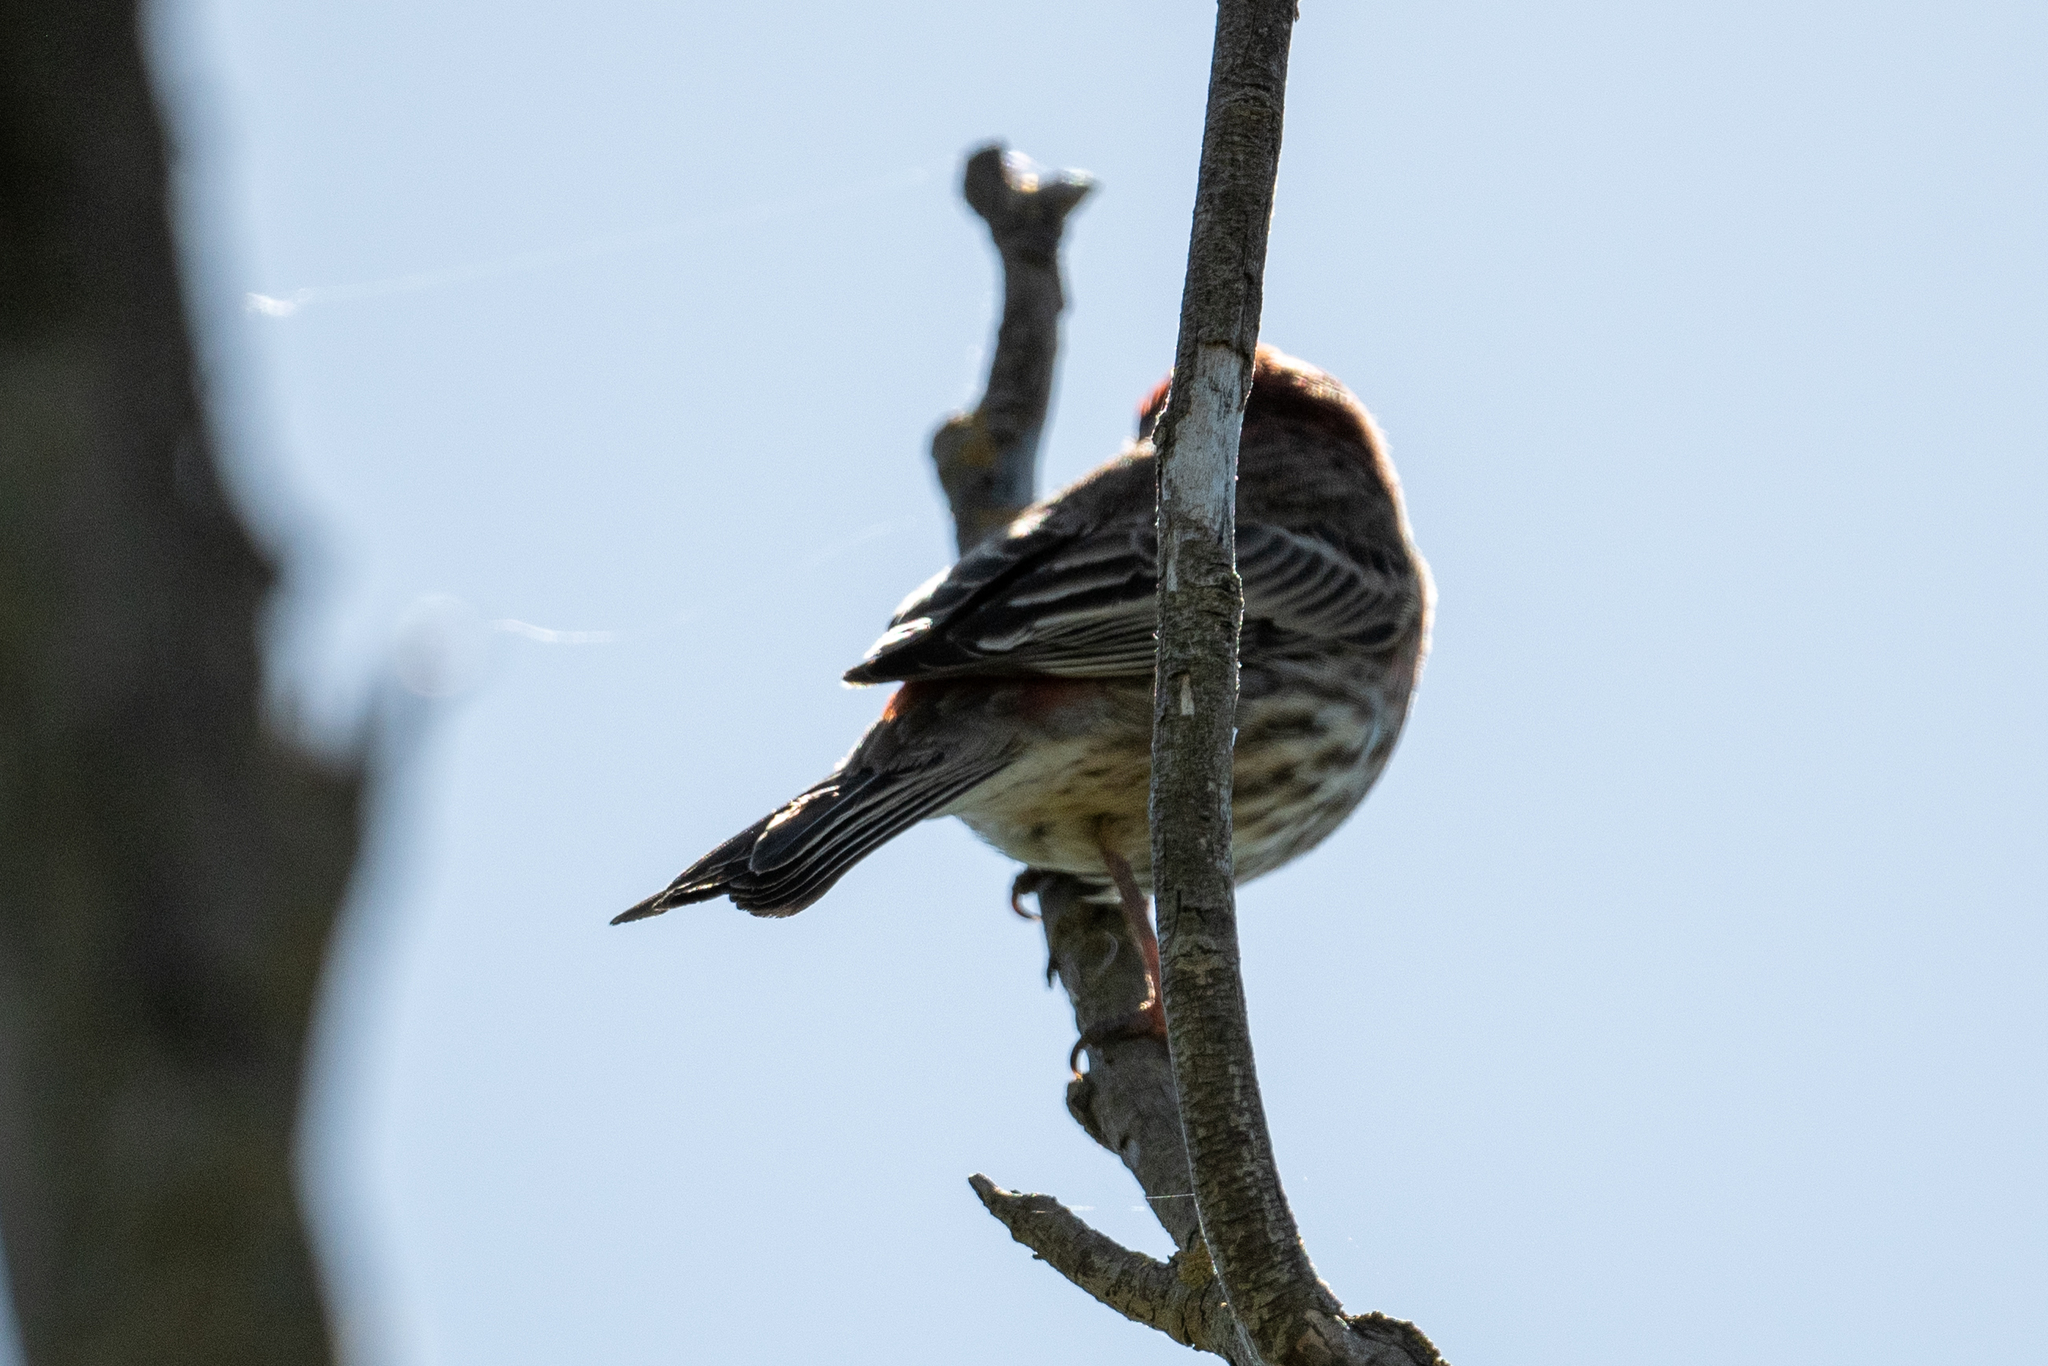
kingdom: Animalia
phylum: Chordata
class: Aves
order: Passeriformes
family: Fringillidae
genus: Haemorhous
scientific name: Haemorhous mexicanus
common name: House finch
